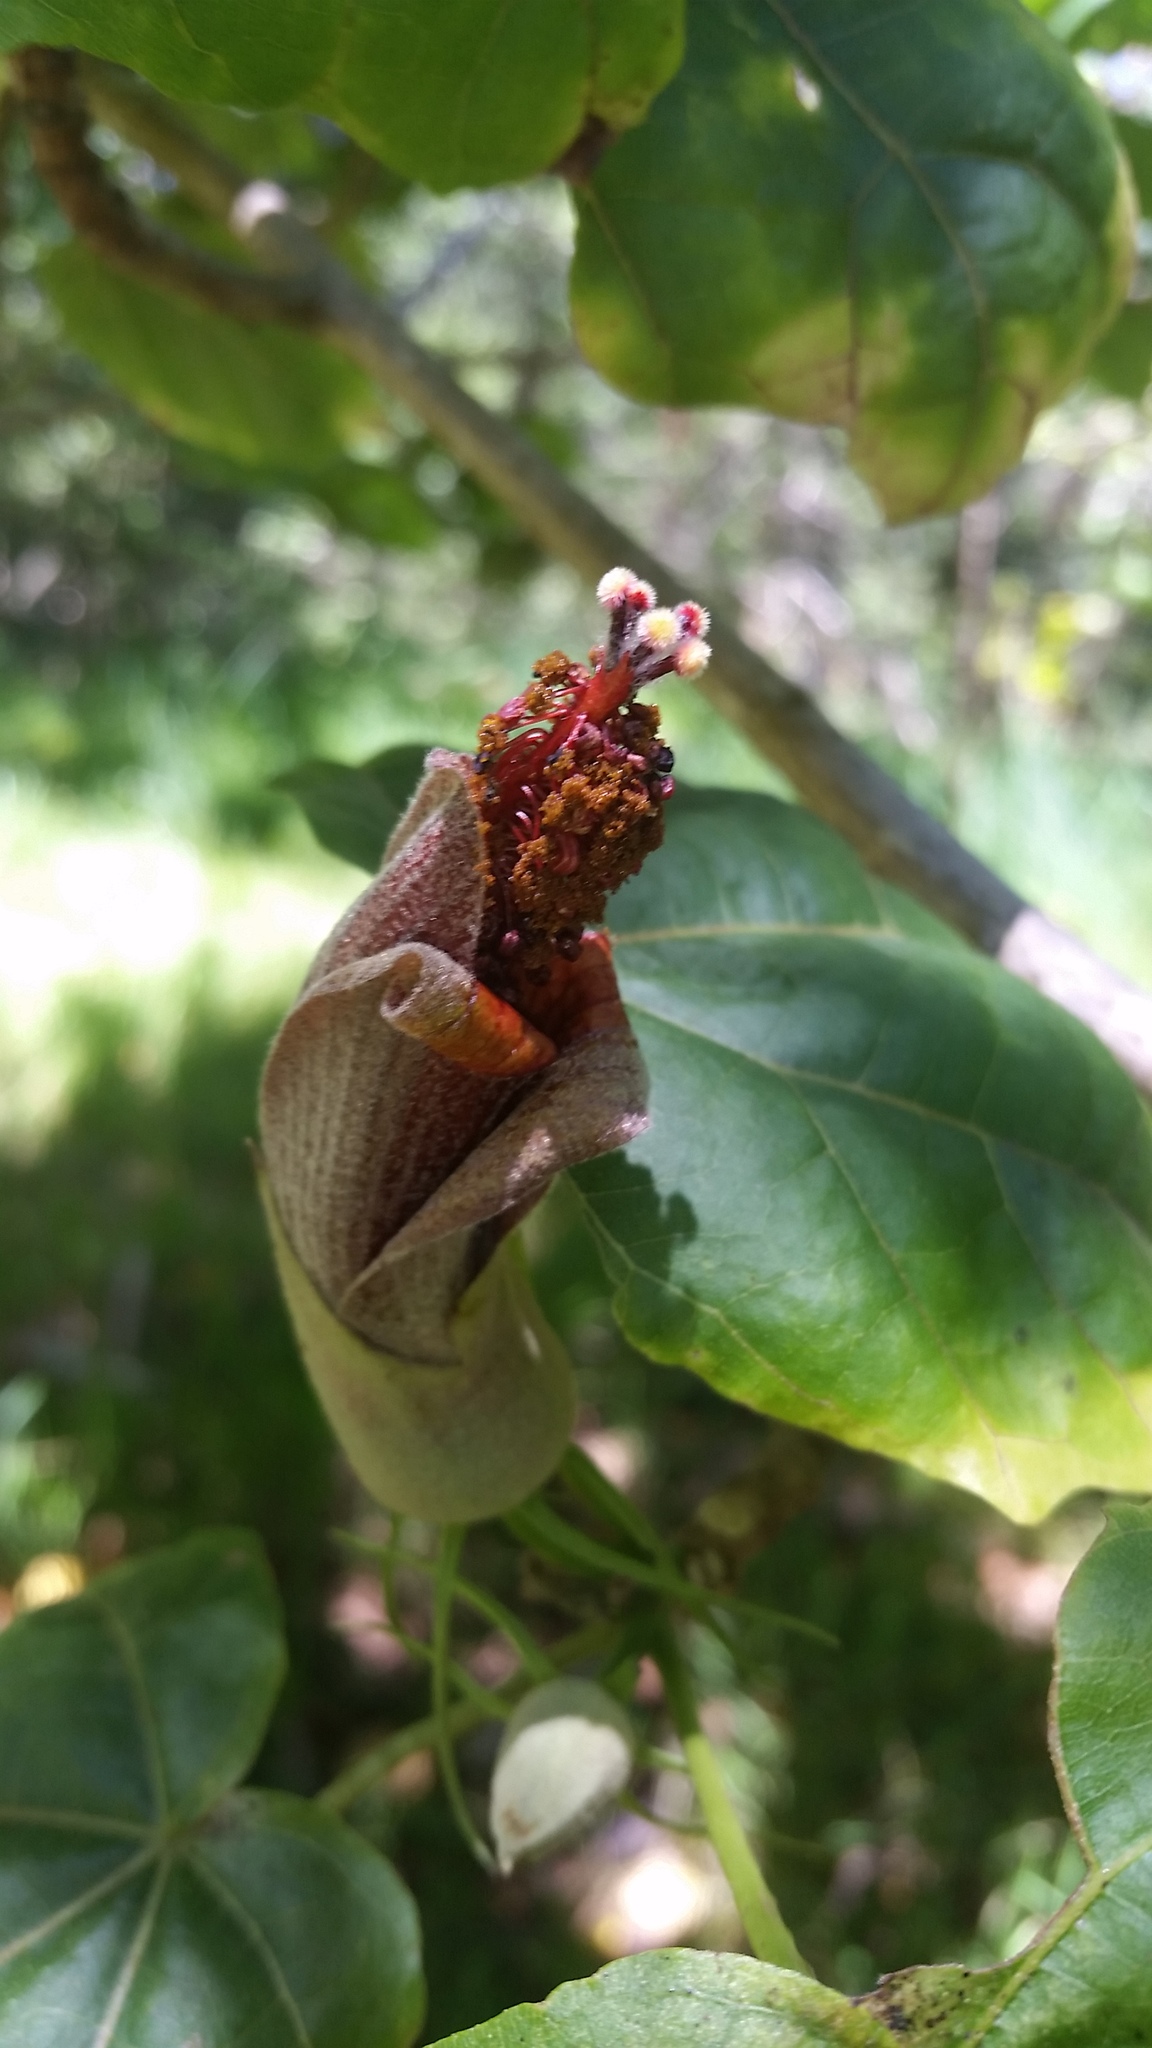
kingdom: Plantae
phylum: Tracheophyta
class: Magnoliopsida
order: Malvales
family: Malvaceae
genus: Hibiscadelphus
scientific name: Hibiscadelphus giffardianus
